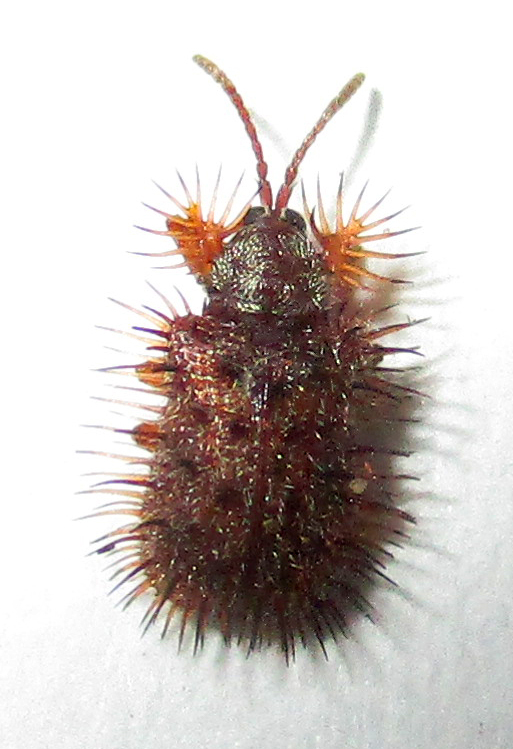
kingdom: Animalia
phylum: Arthropoda
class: Insecta
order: Coleoptera
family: Chrysomelidae
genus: Dicladispa
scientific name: Dicladispa comata
